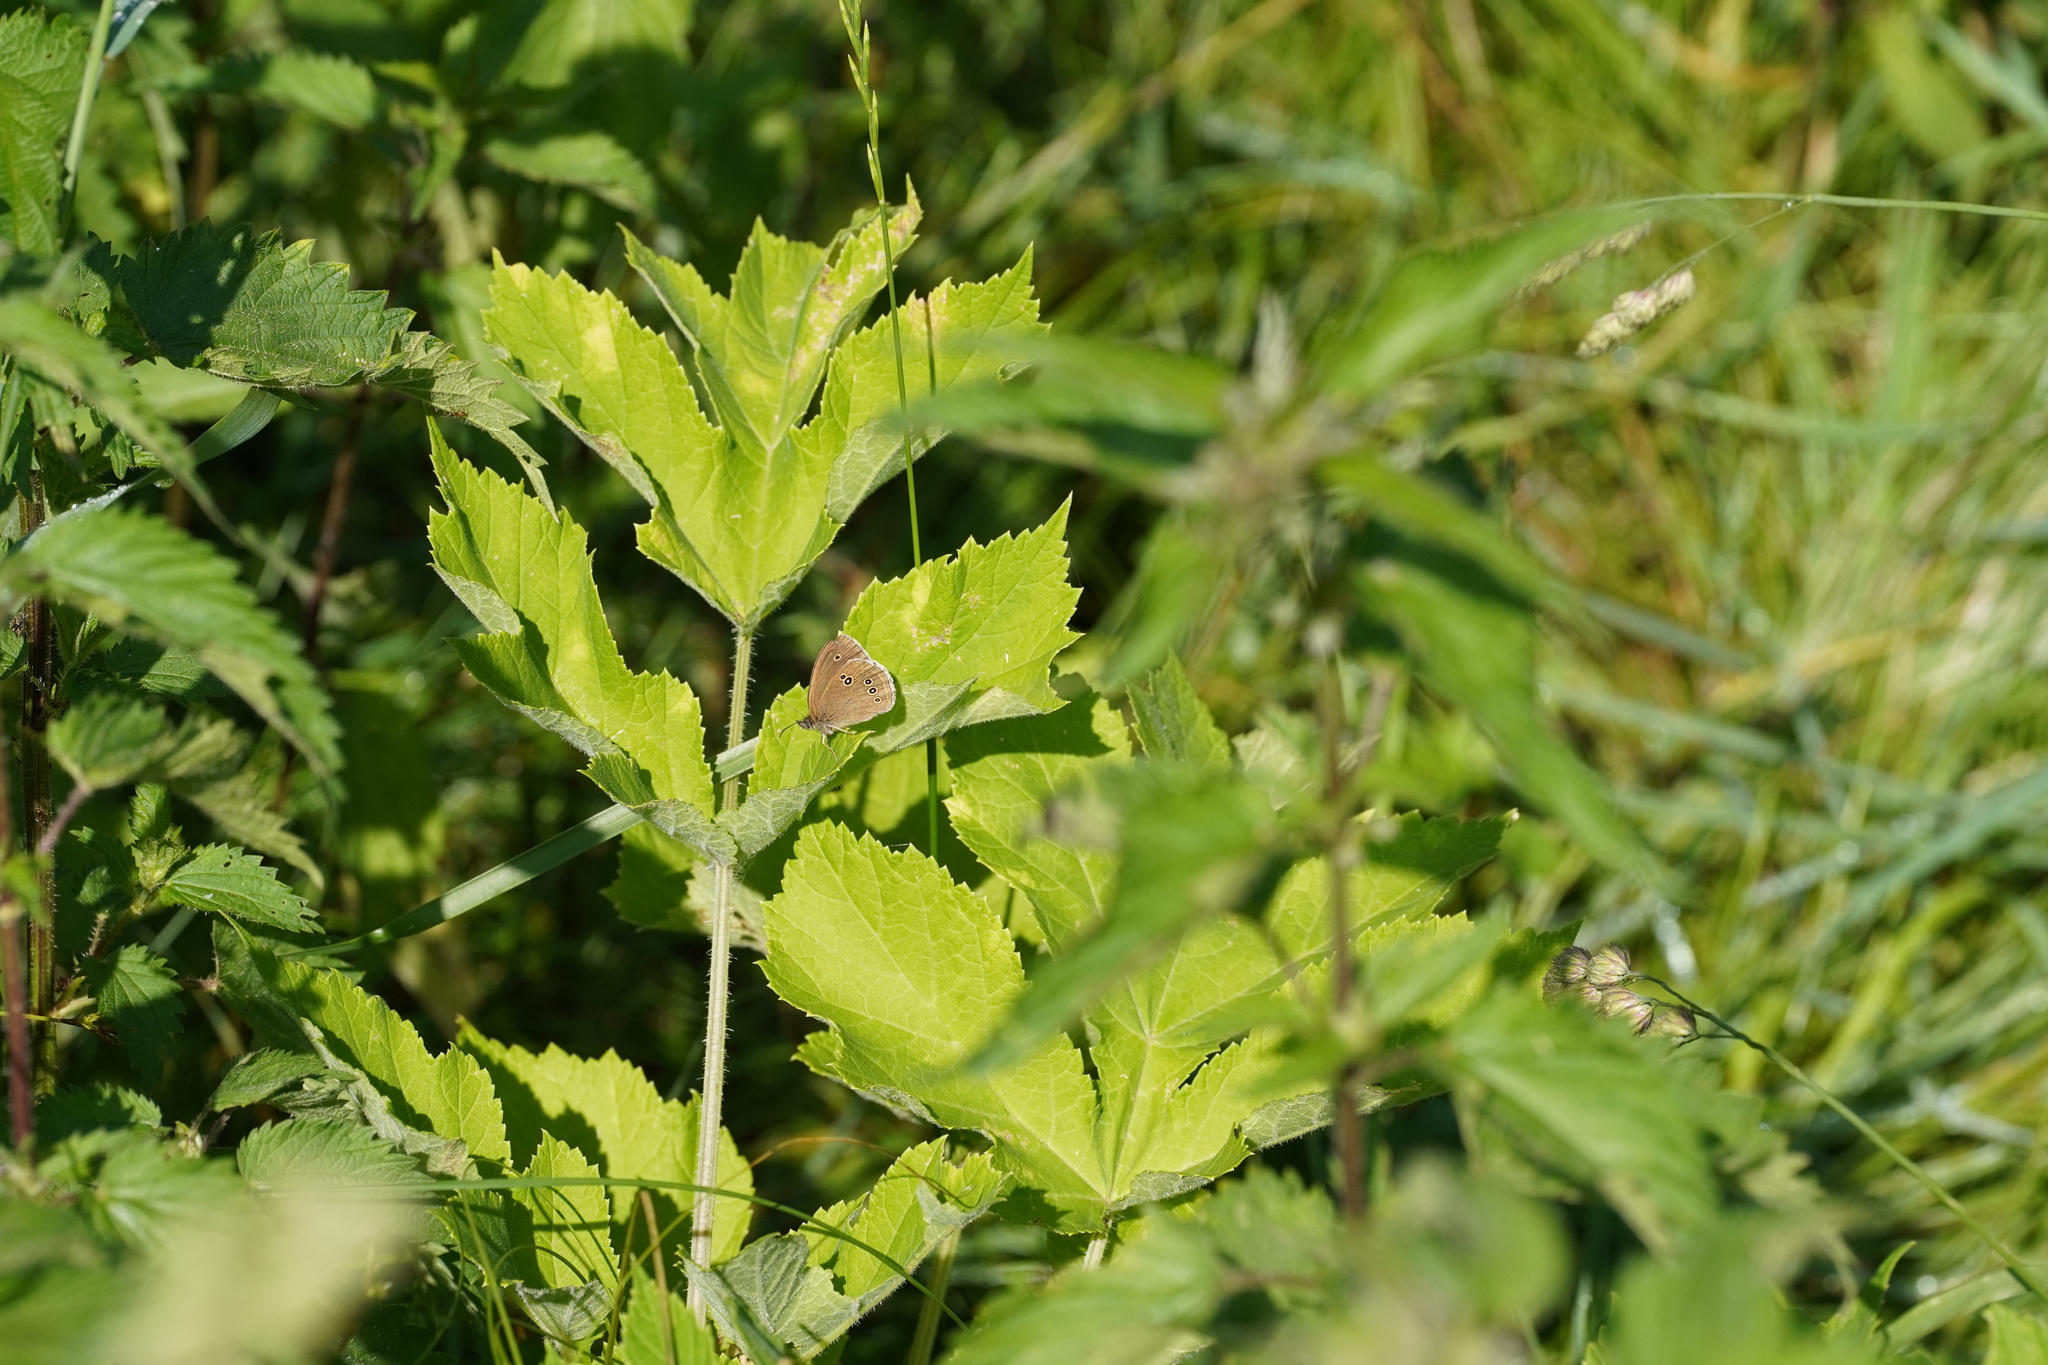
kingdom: Animalia
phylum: Arthropoda
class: Insecta
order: Lepidoptera
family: Nymphalidae
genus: Aphantopus
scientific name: Aphantopus hyperantus
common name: Ringlet
